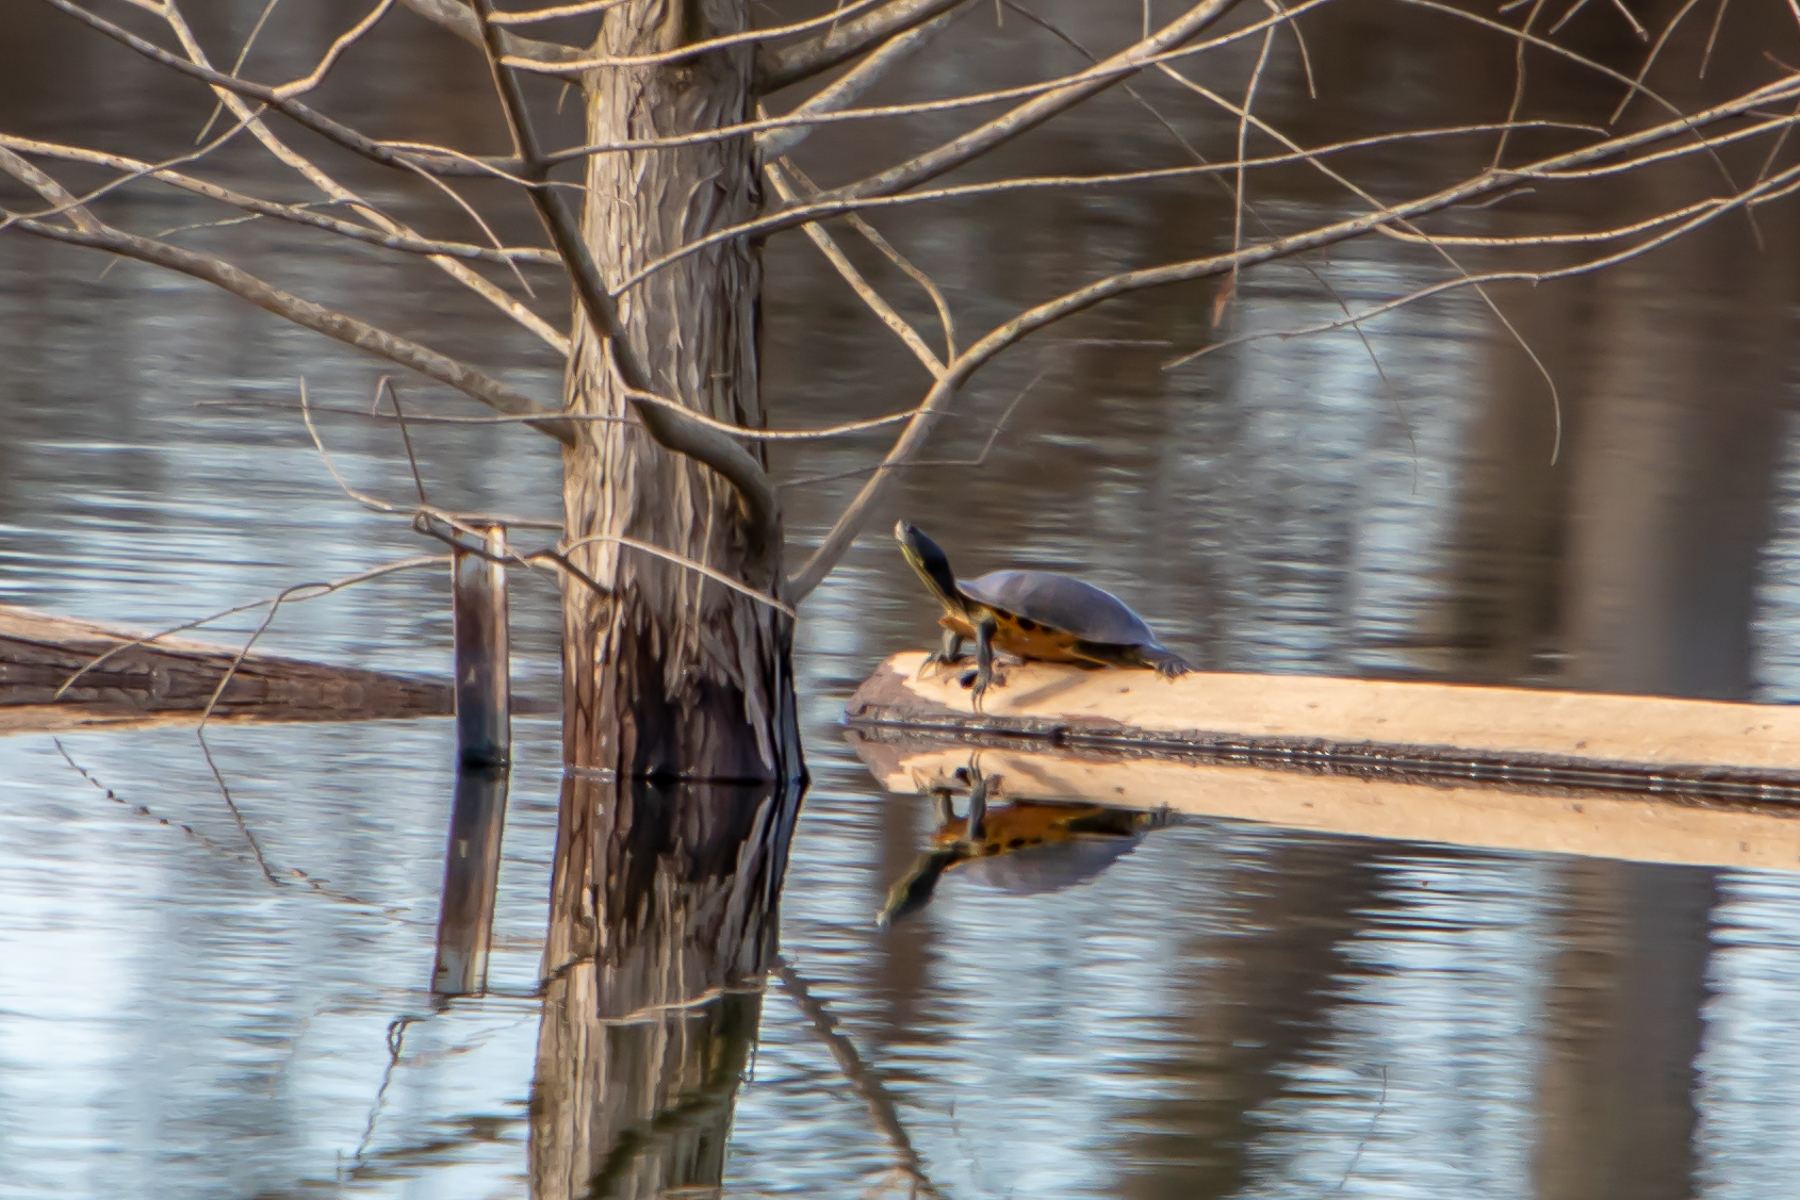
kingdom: Animalia
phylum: Chordata
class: Testudines
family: Emydidae
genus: Trachemys
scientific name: Trachemys scripta
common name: Slider
